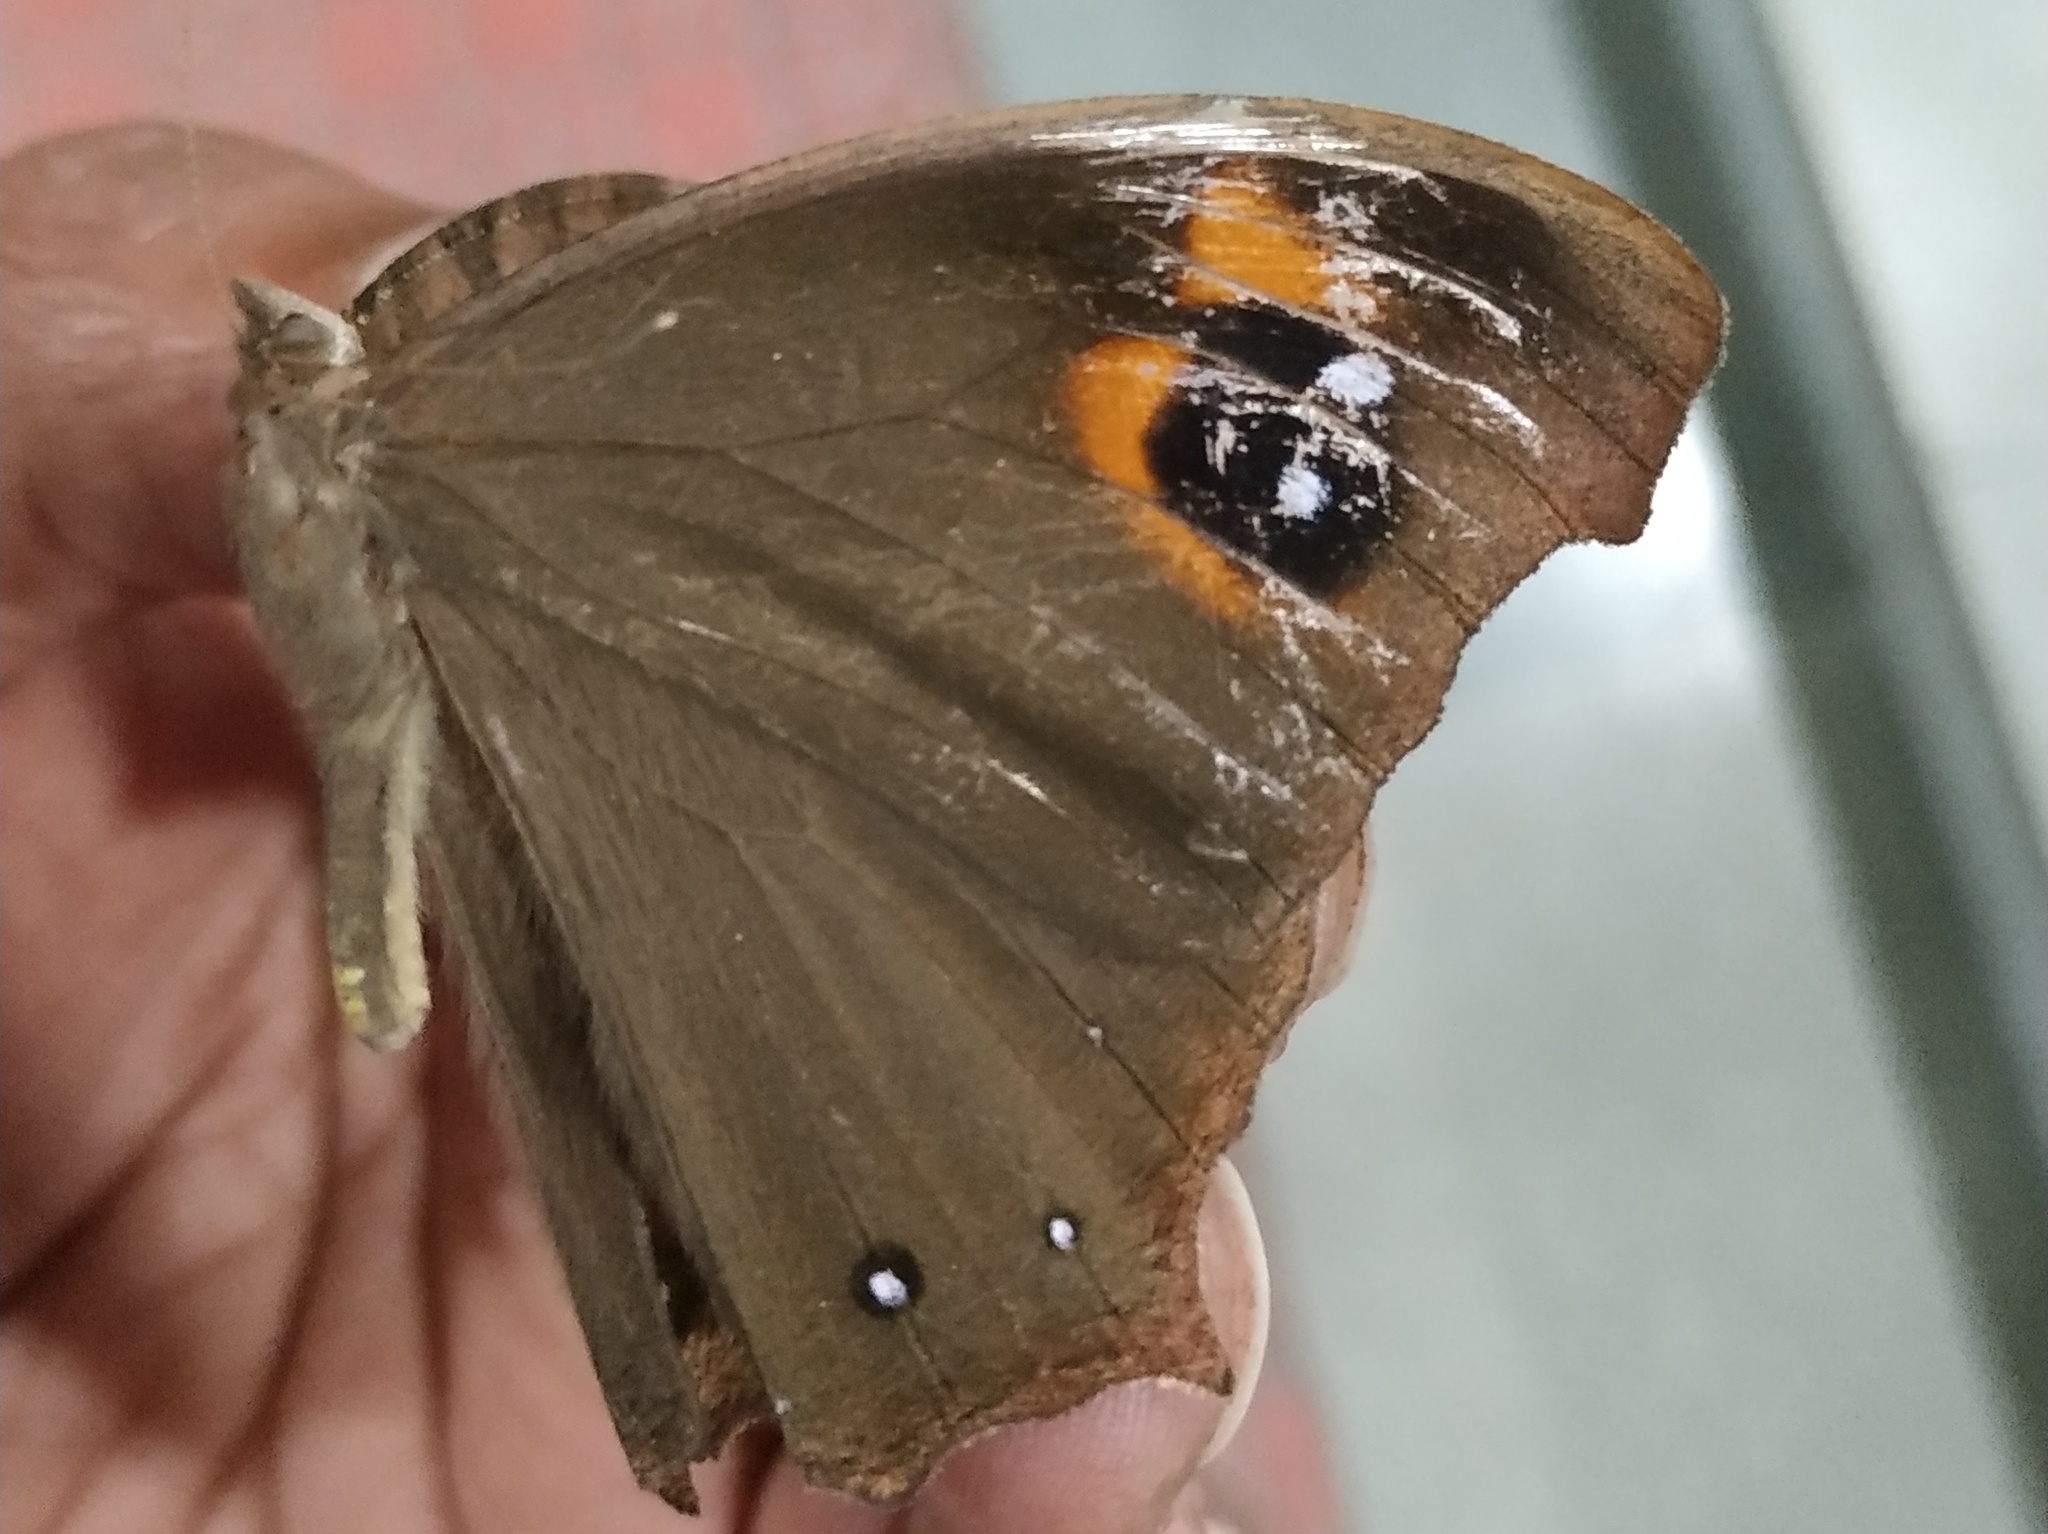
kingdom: Animalia
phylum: Arthropoda
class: Insecta
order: Lepidoptera
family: Nymphalidae
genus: Melanitis
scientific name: Melanitis leda
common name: Twilight brown
